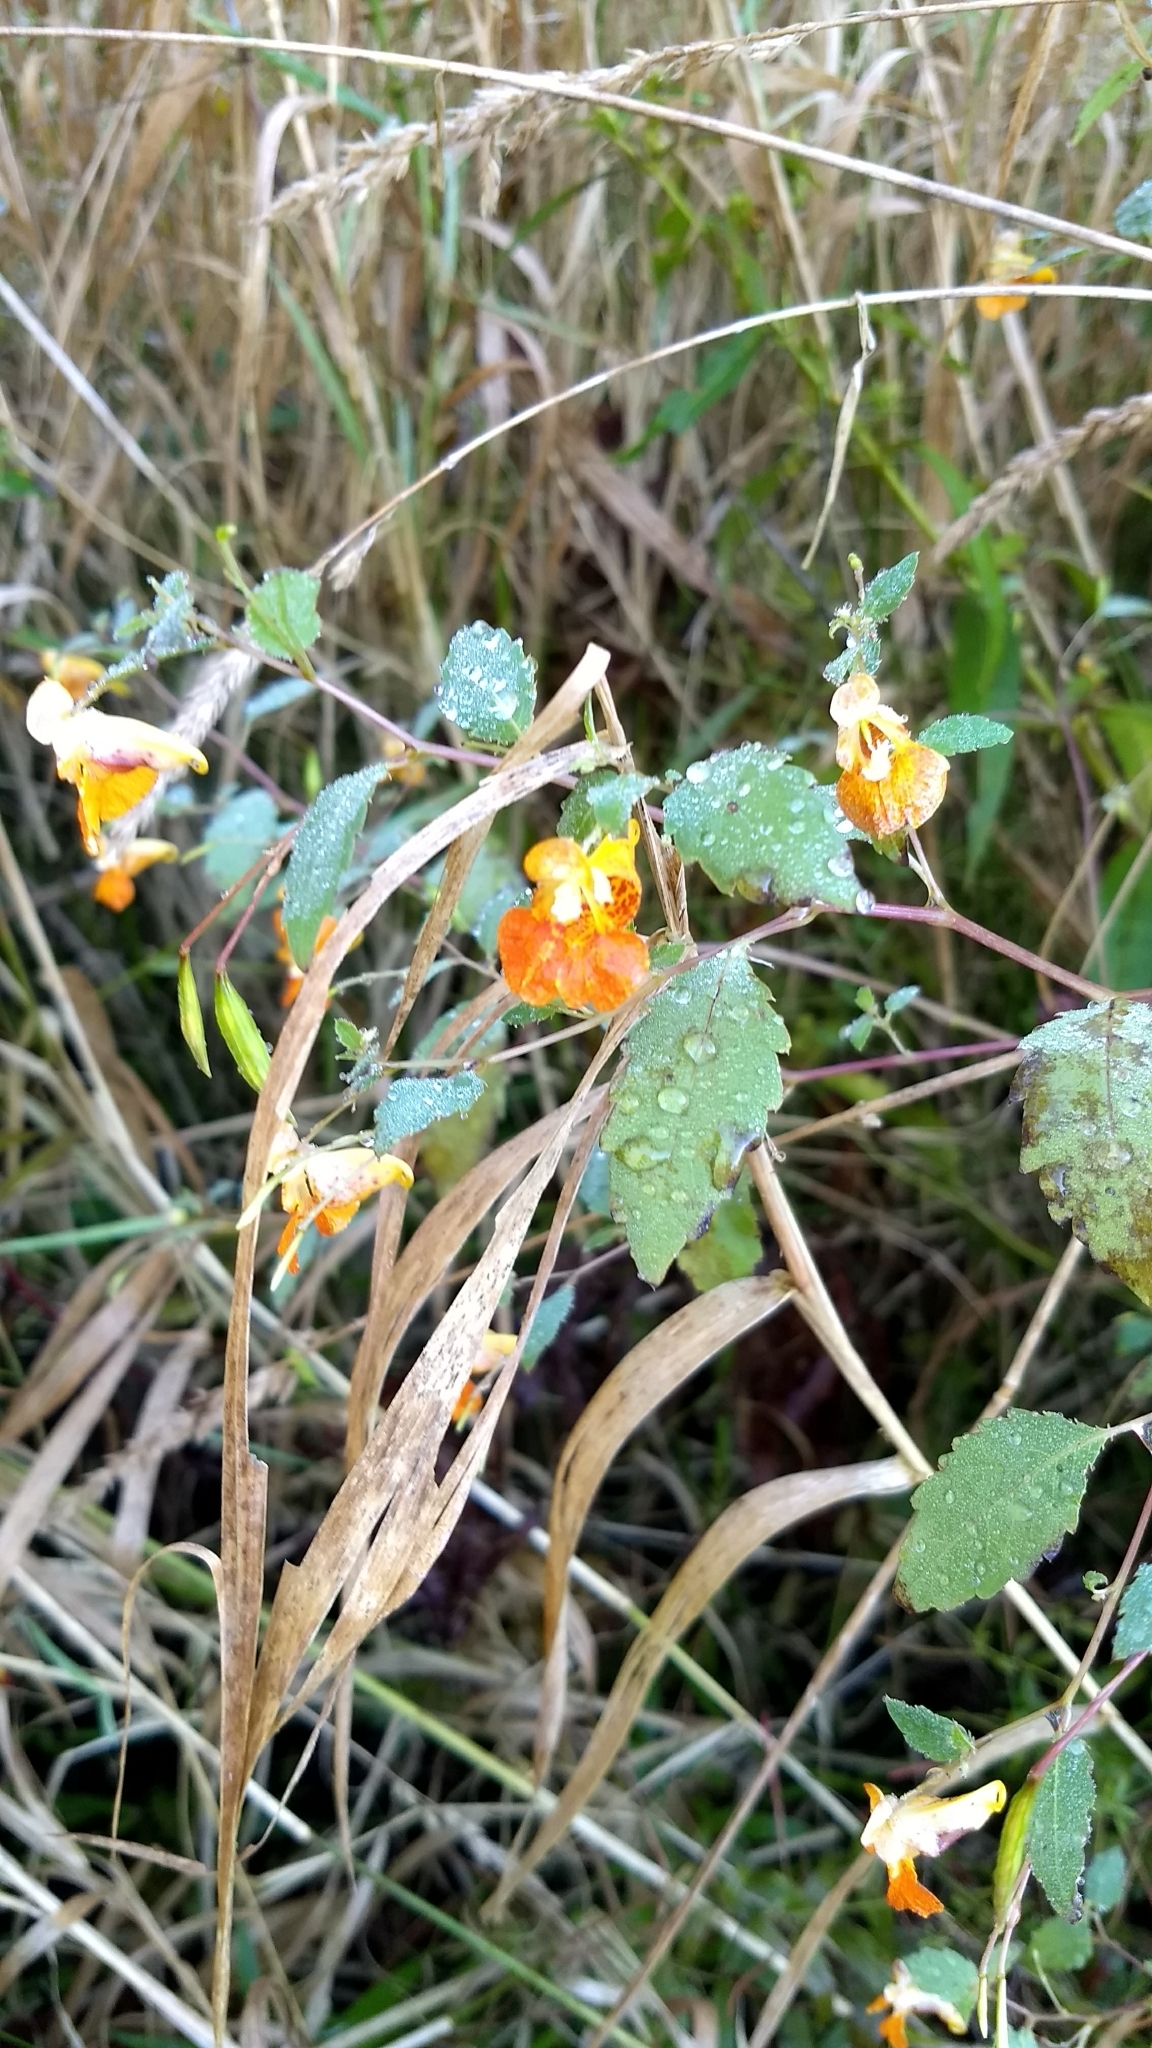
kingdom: Plantae
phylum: Tracheophyta
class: Magnoliopsida
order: Ericales
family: Balsaminaceae
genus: Impatiens
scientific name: Impatiens capensis
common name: Orange balsam
